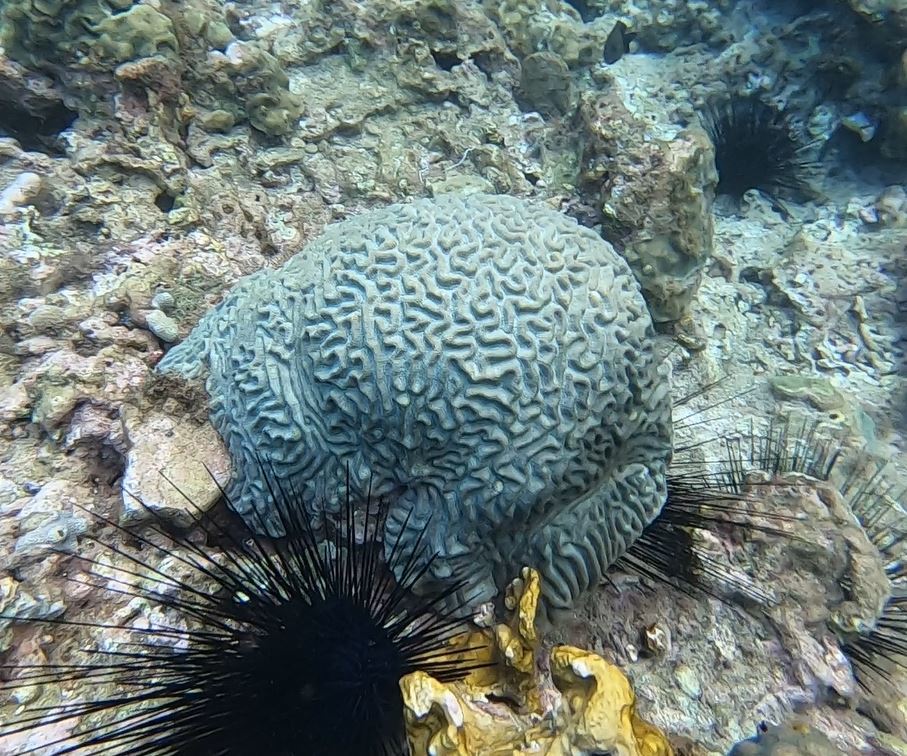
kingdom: Animalia
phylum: Cnidaria
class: Anthozoa
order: Scleractinia
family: Faviidae
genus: Pseudodiploria
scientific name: Pseudodiploria strigosa
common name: Symmetrical brain coral
